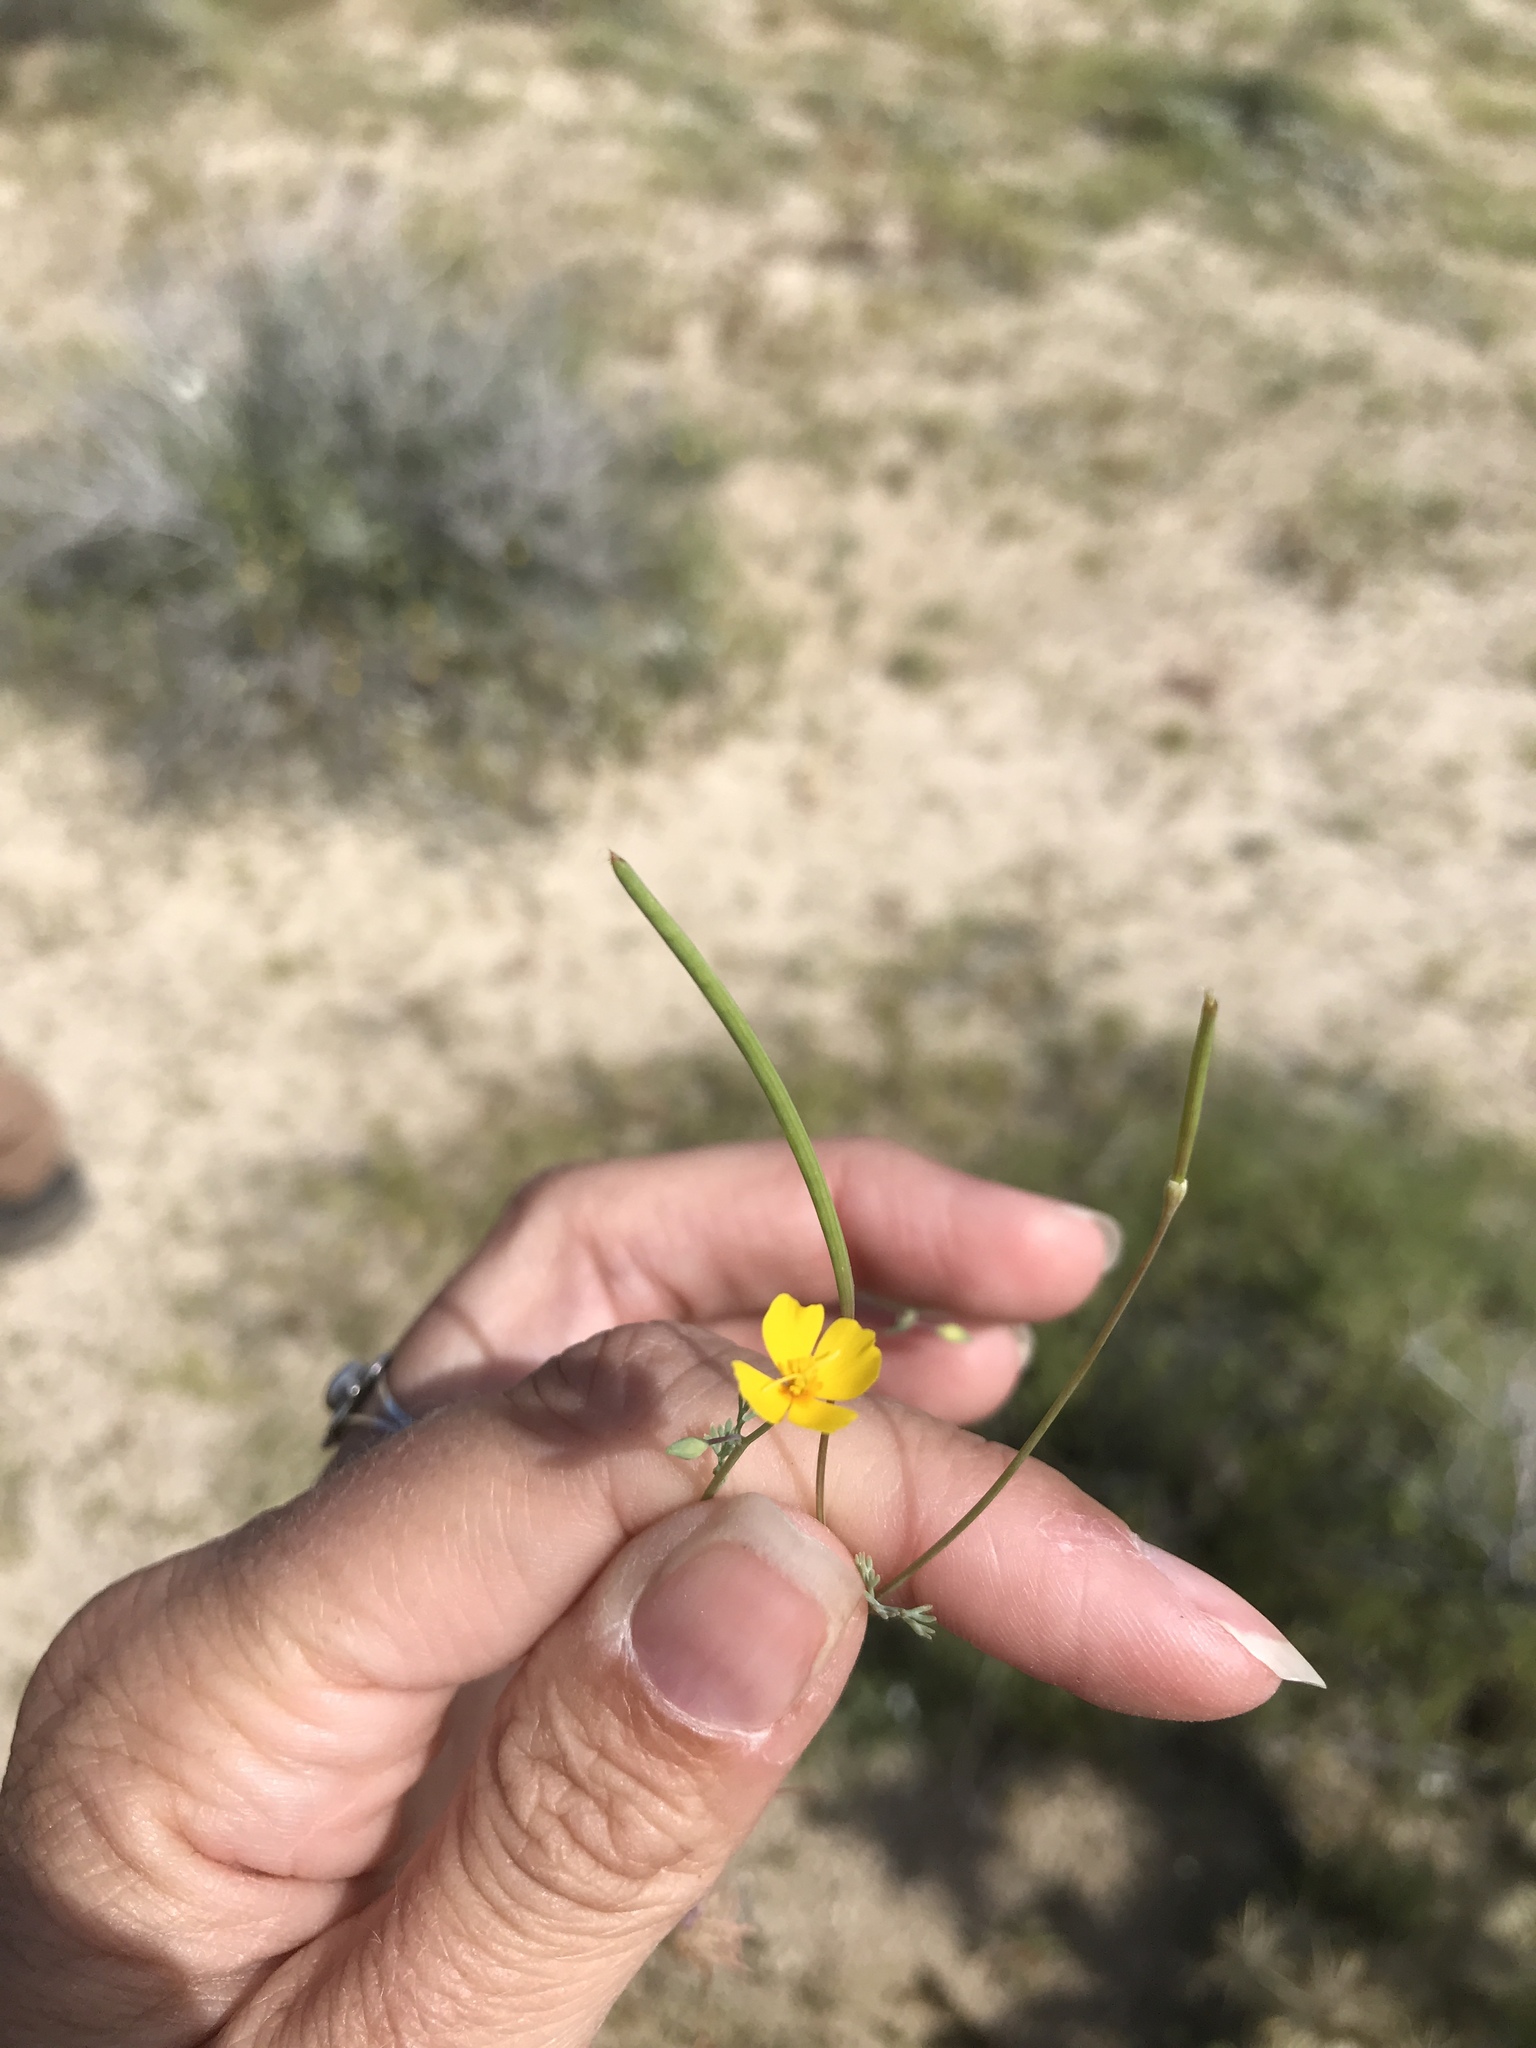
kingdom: Plantae
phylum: Tracheophyta
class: Magnoliopsida
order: Ranunculales
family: Papaveraceae
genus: Eschscholzia
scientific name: Eschscholzia minutiflora
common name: Small-flower california-poppy
